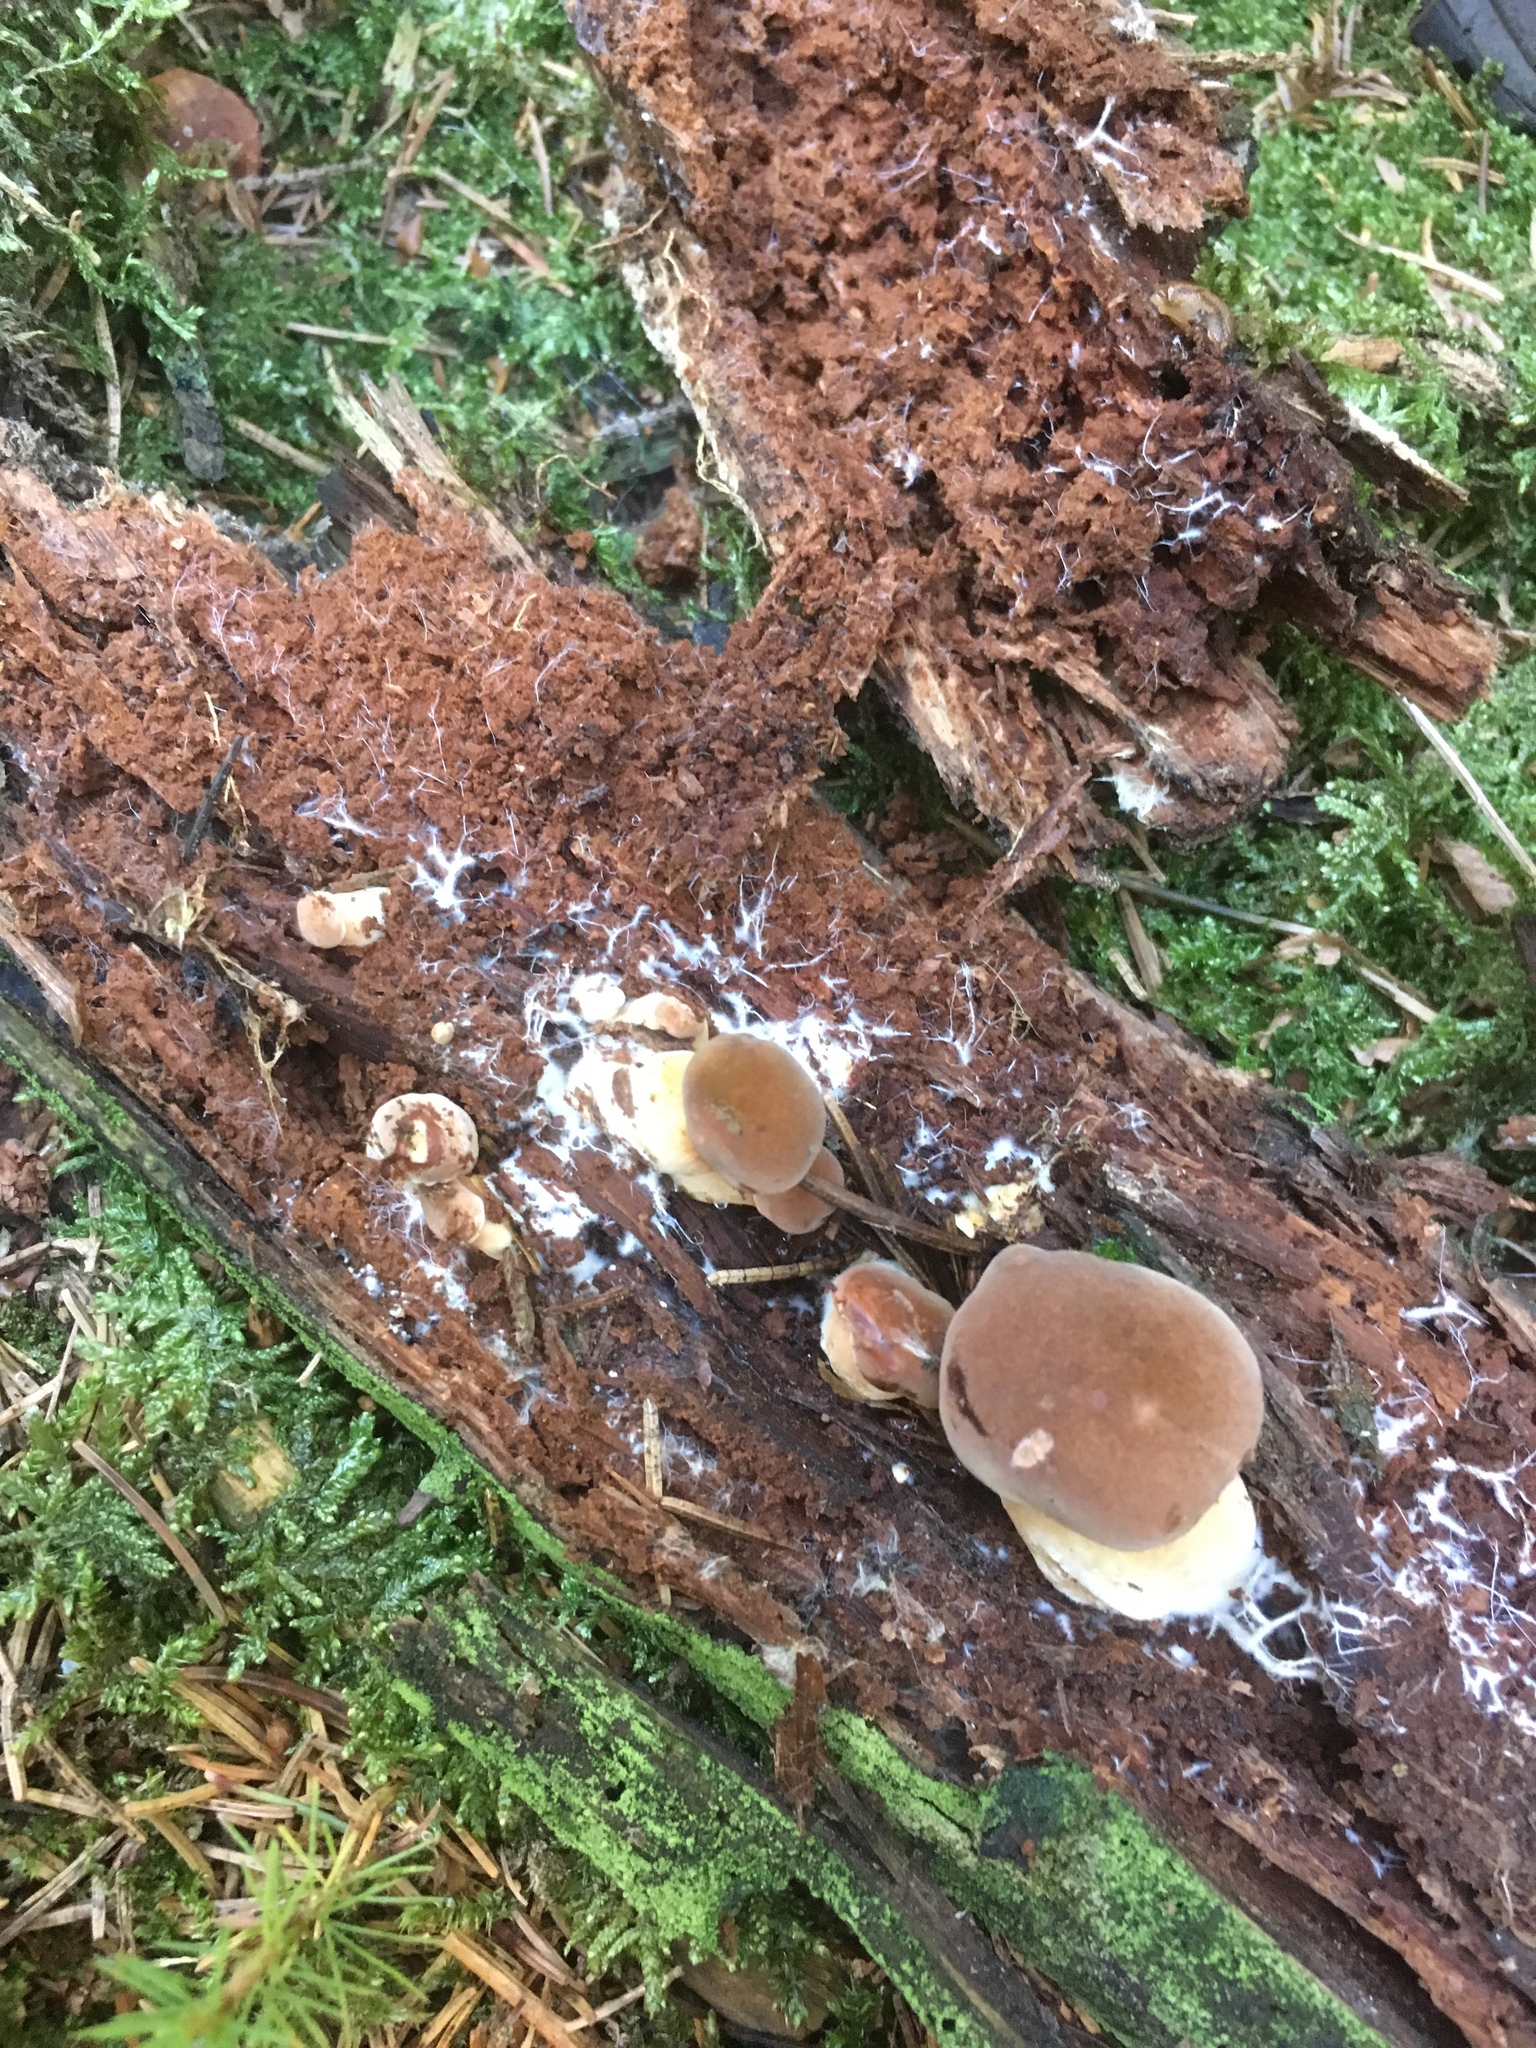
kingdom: Fungi
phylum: Basidiomycota
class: Agaricomycetes
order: Boletales
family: Boletaceae
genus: Imleria
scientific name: Imleria badia
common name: Bay bolete
